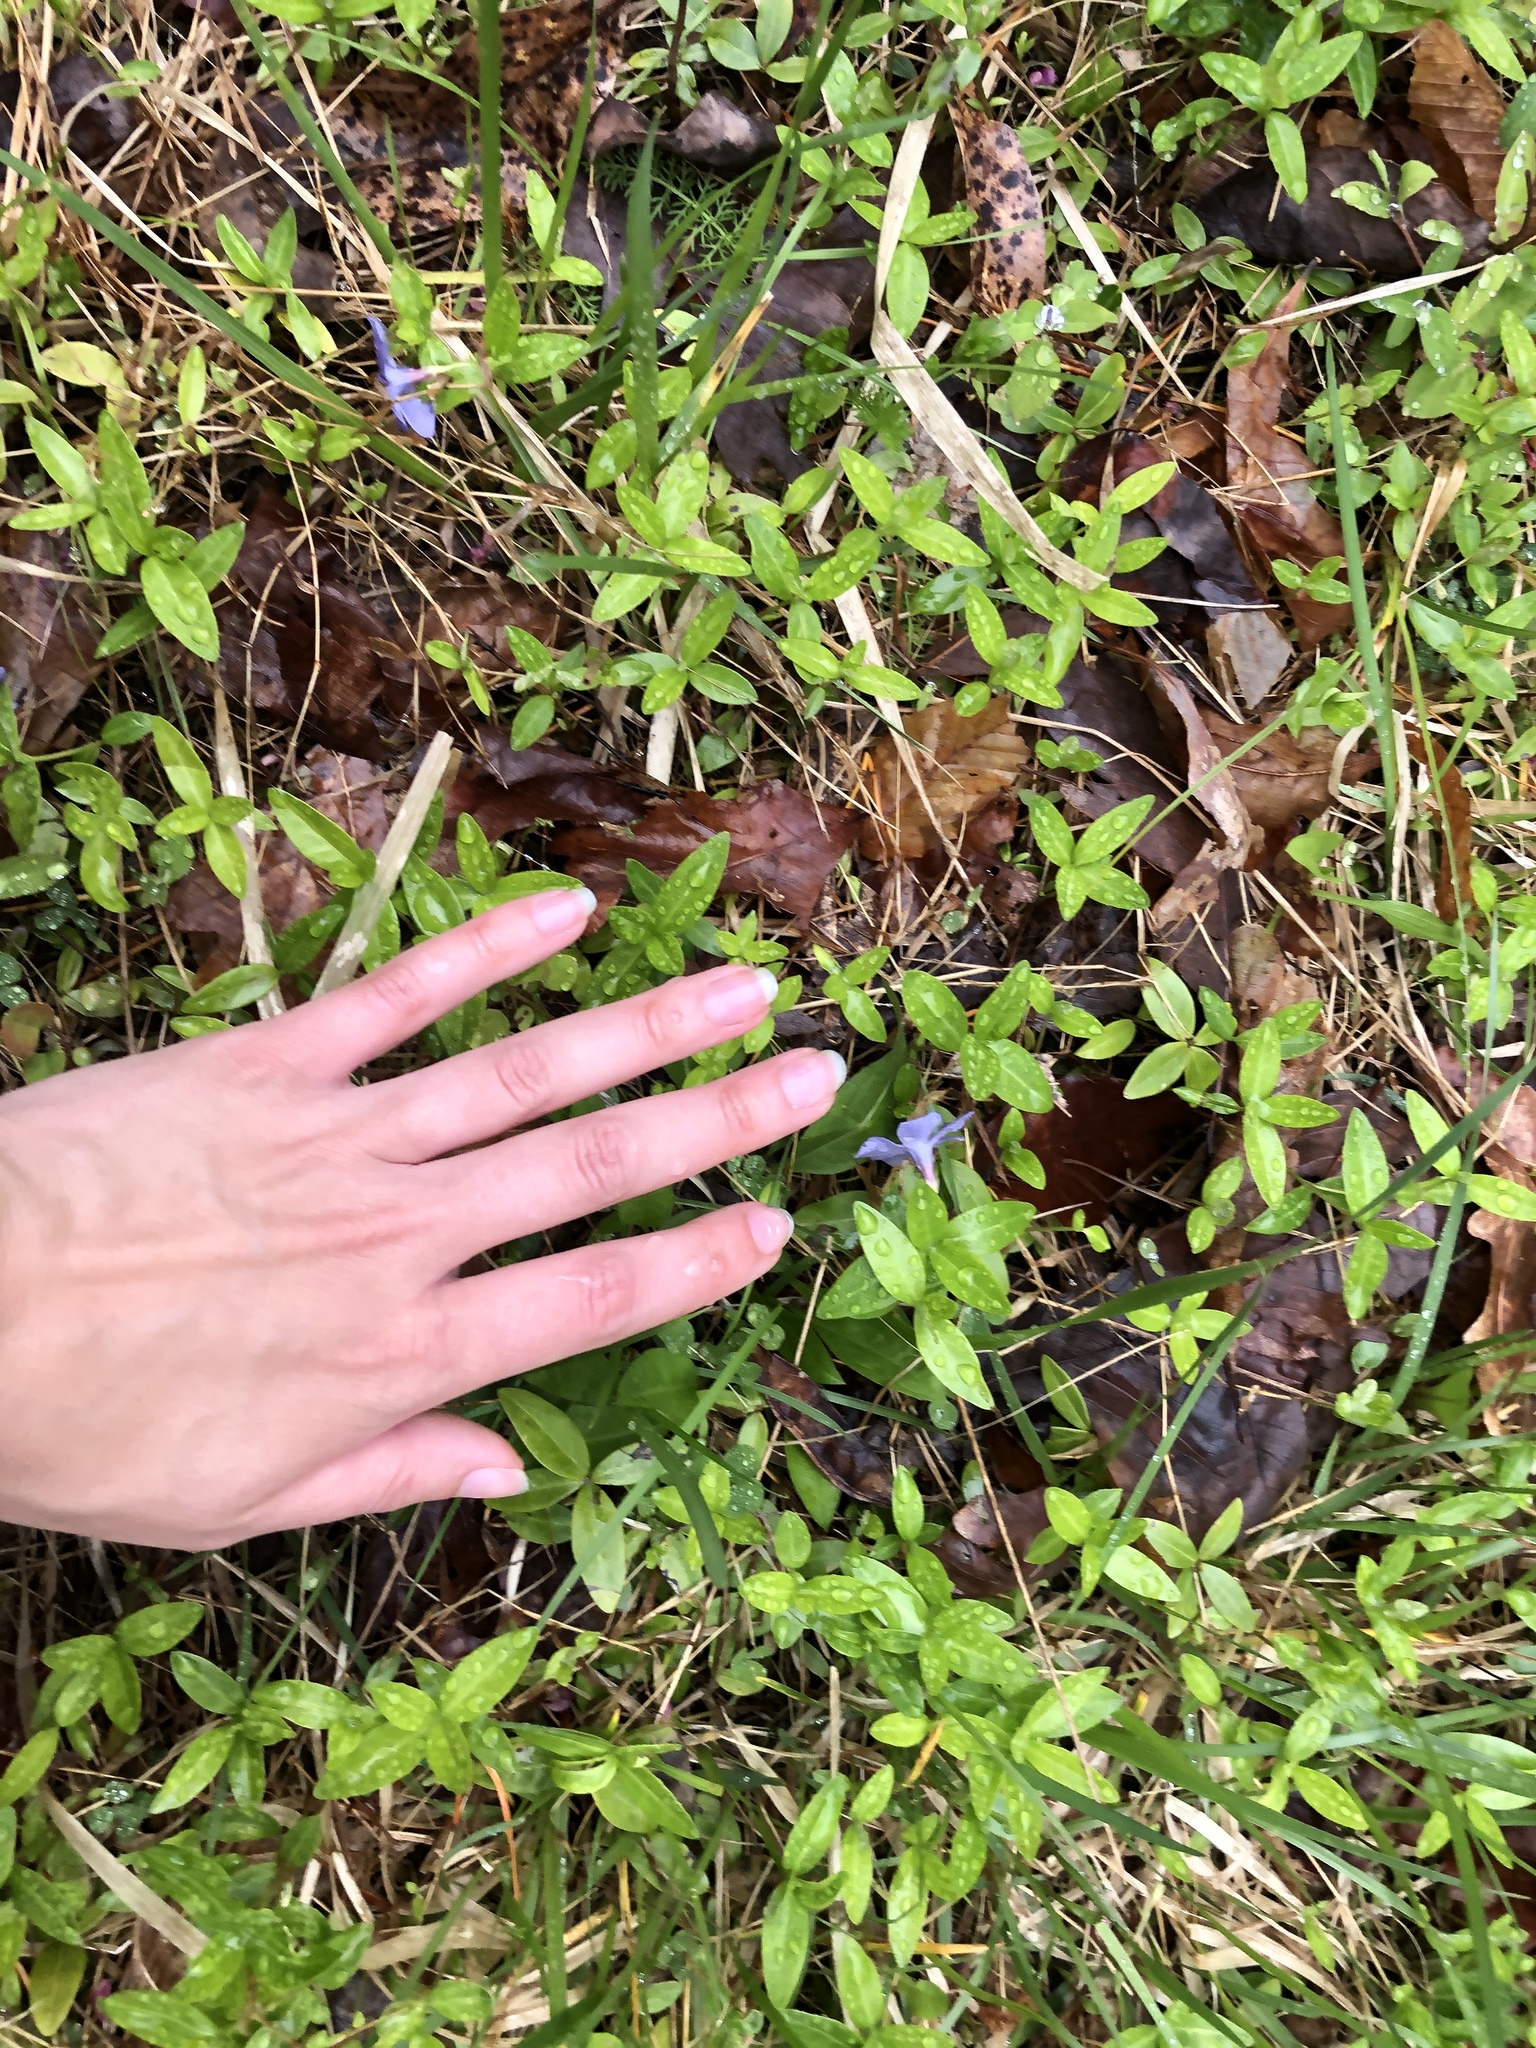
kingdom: Plantae
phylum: Tracheophyta
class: Magnoliopsida
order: Gentianales
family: Apocynaceae
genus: Vinca
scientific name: Vinca minor
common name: Lesser periwinkle
